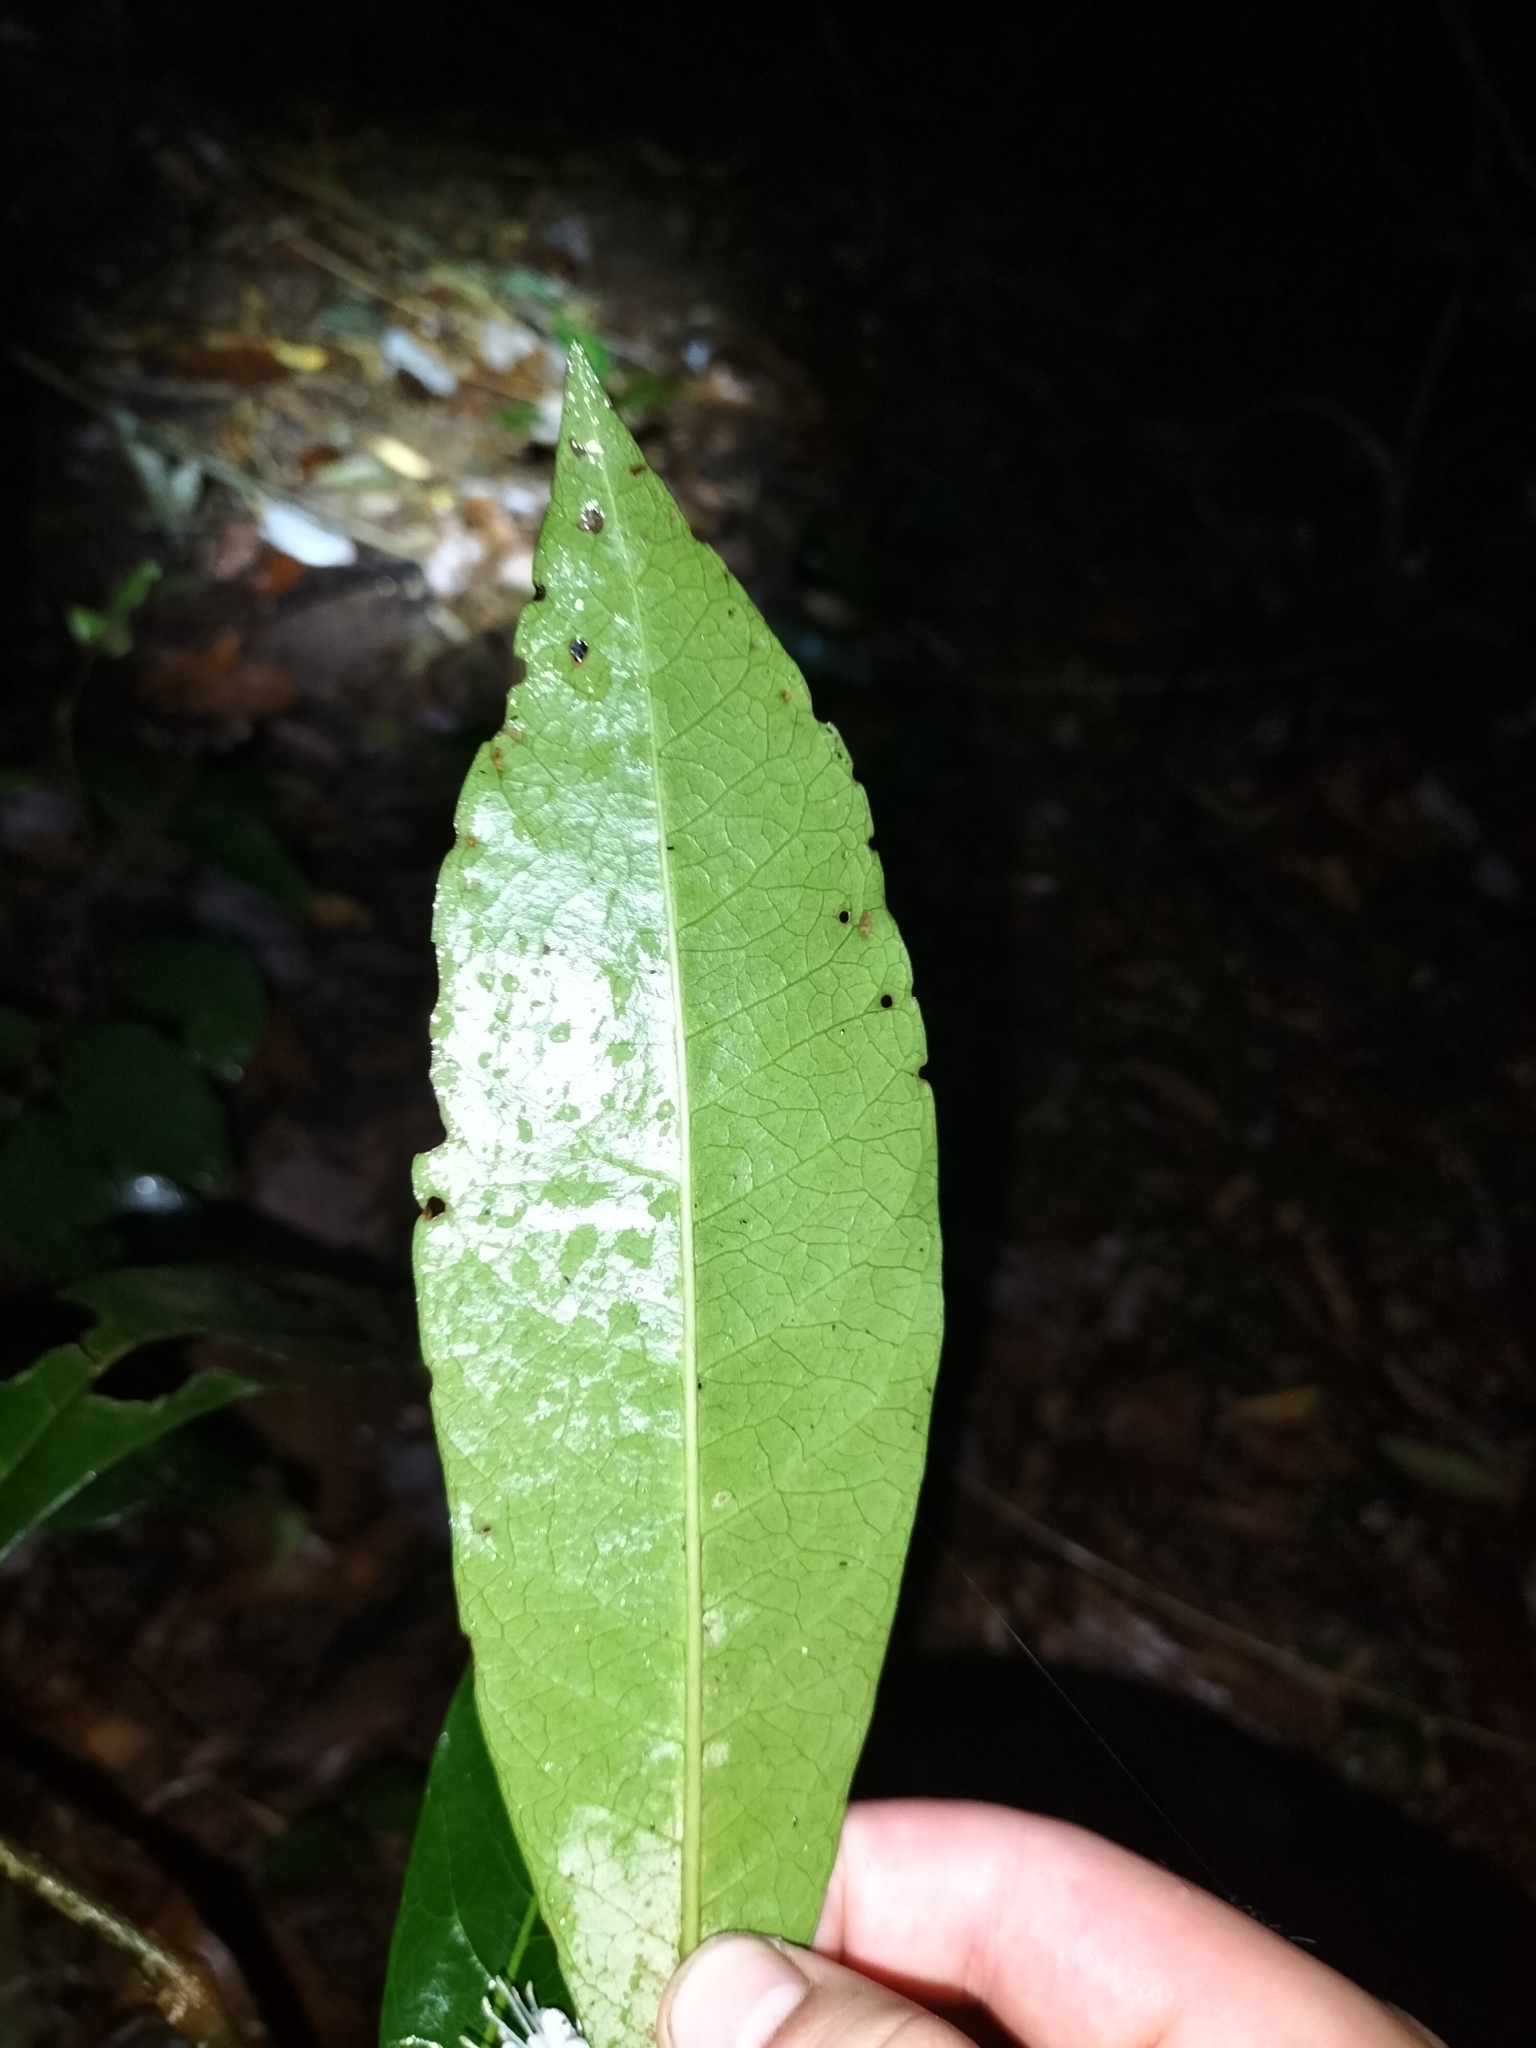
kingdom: Plantae
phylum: Tracheophyta
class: Magnoliopsida
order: Malvales
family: Thymelaeaceae
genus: Phaleria
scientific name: Phaleria octandra
